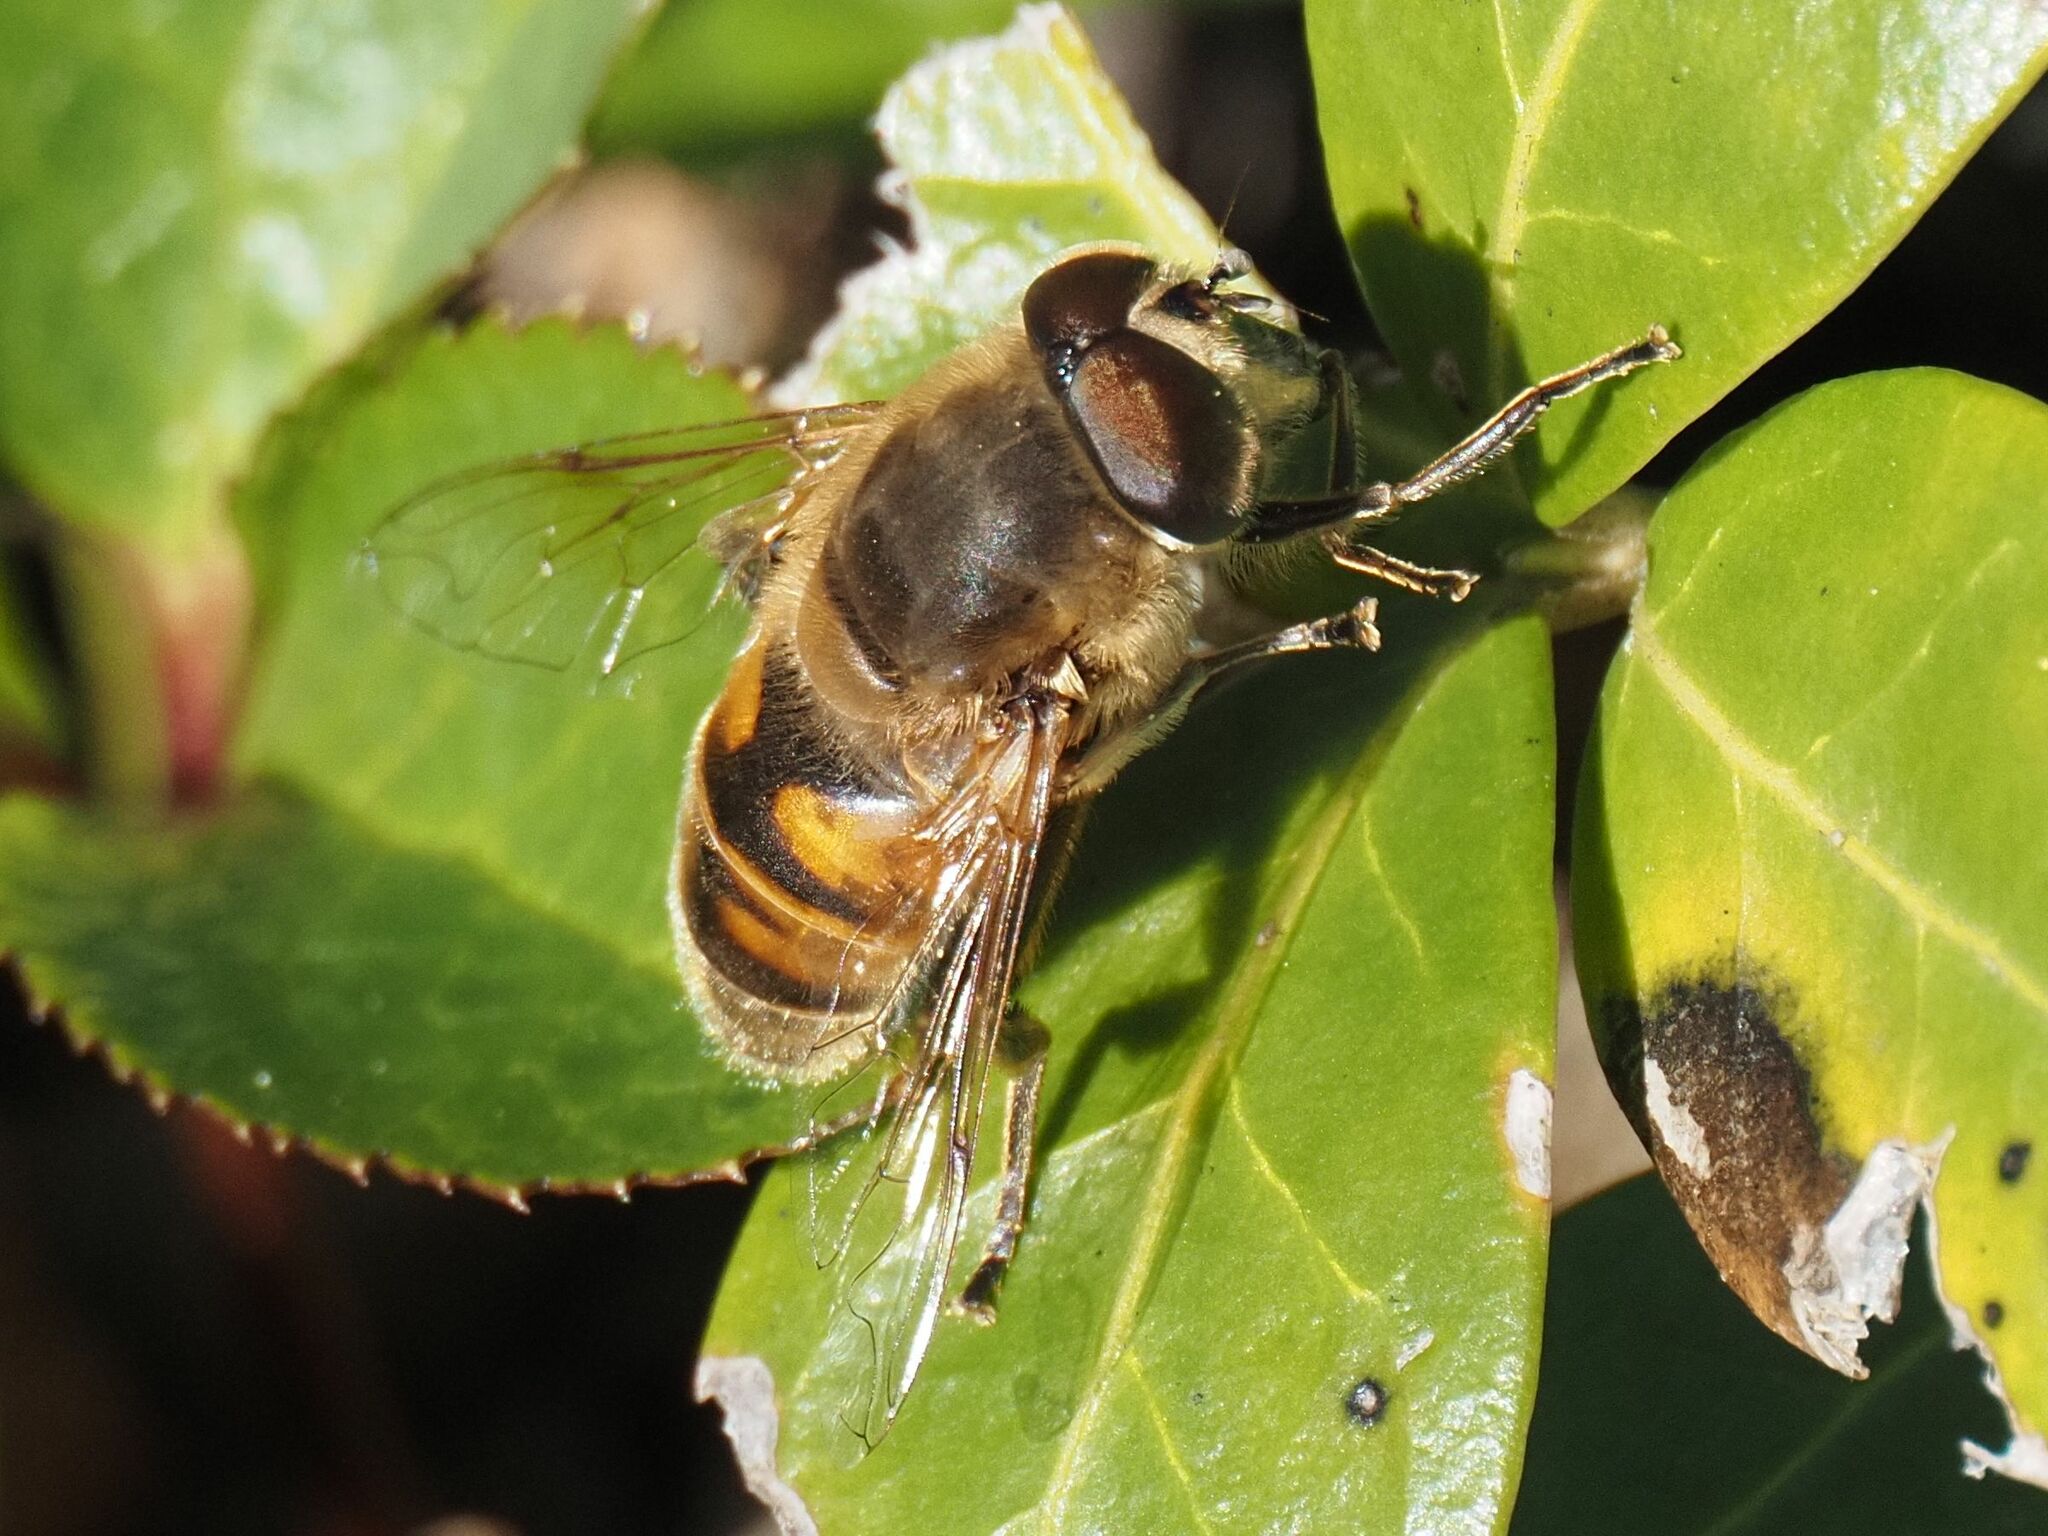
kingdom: Animalia
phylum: Arthropoda
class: Insecta
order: Diptera
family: Syrphidae
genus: Eristalis
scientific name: Eristalis tenax
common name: Drone fly
